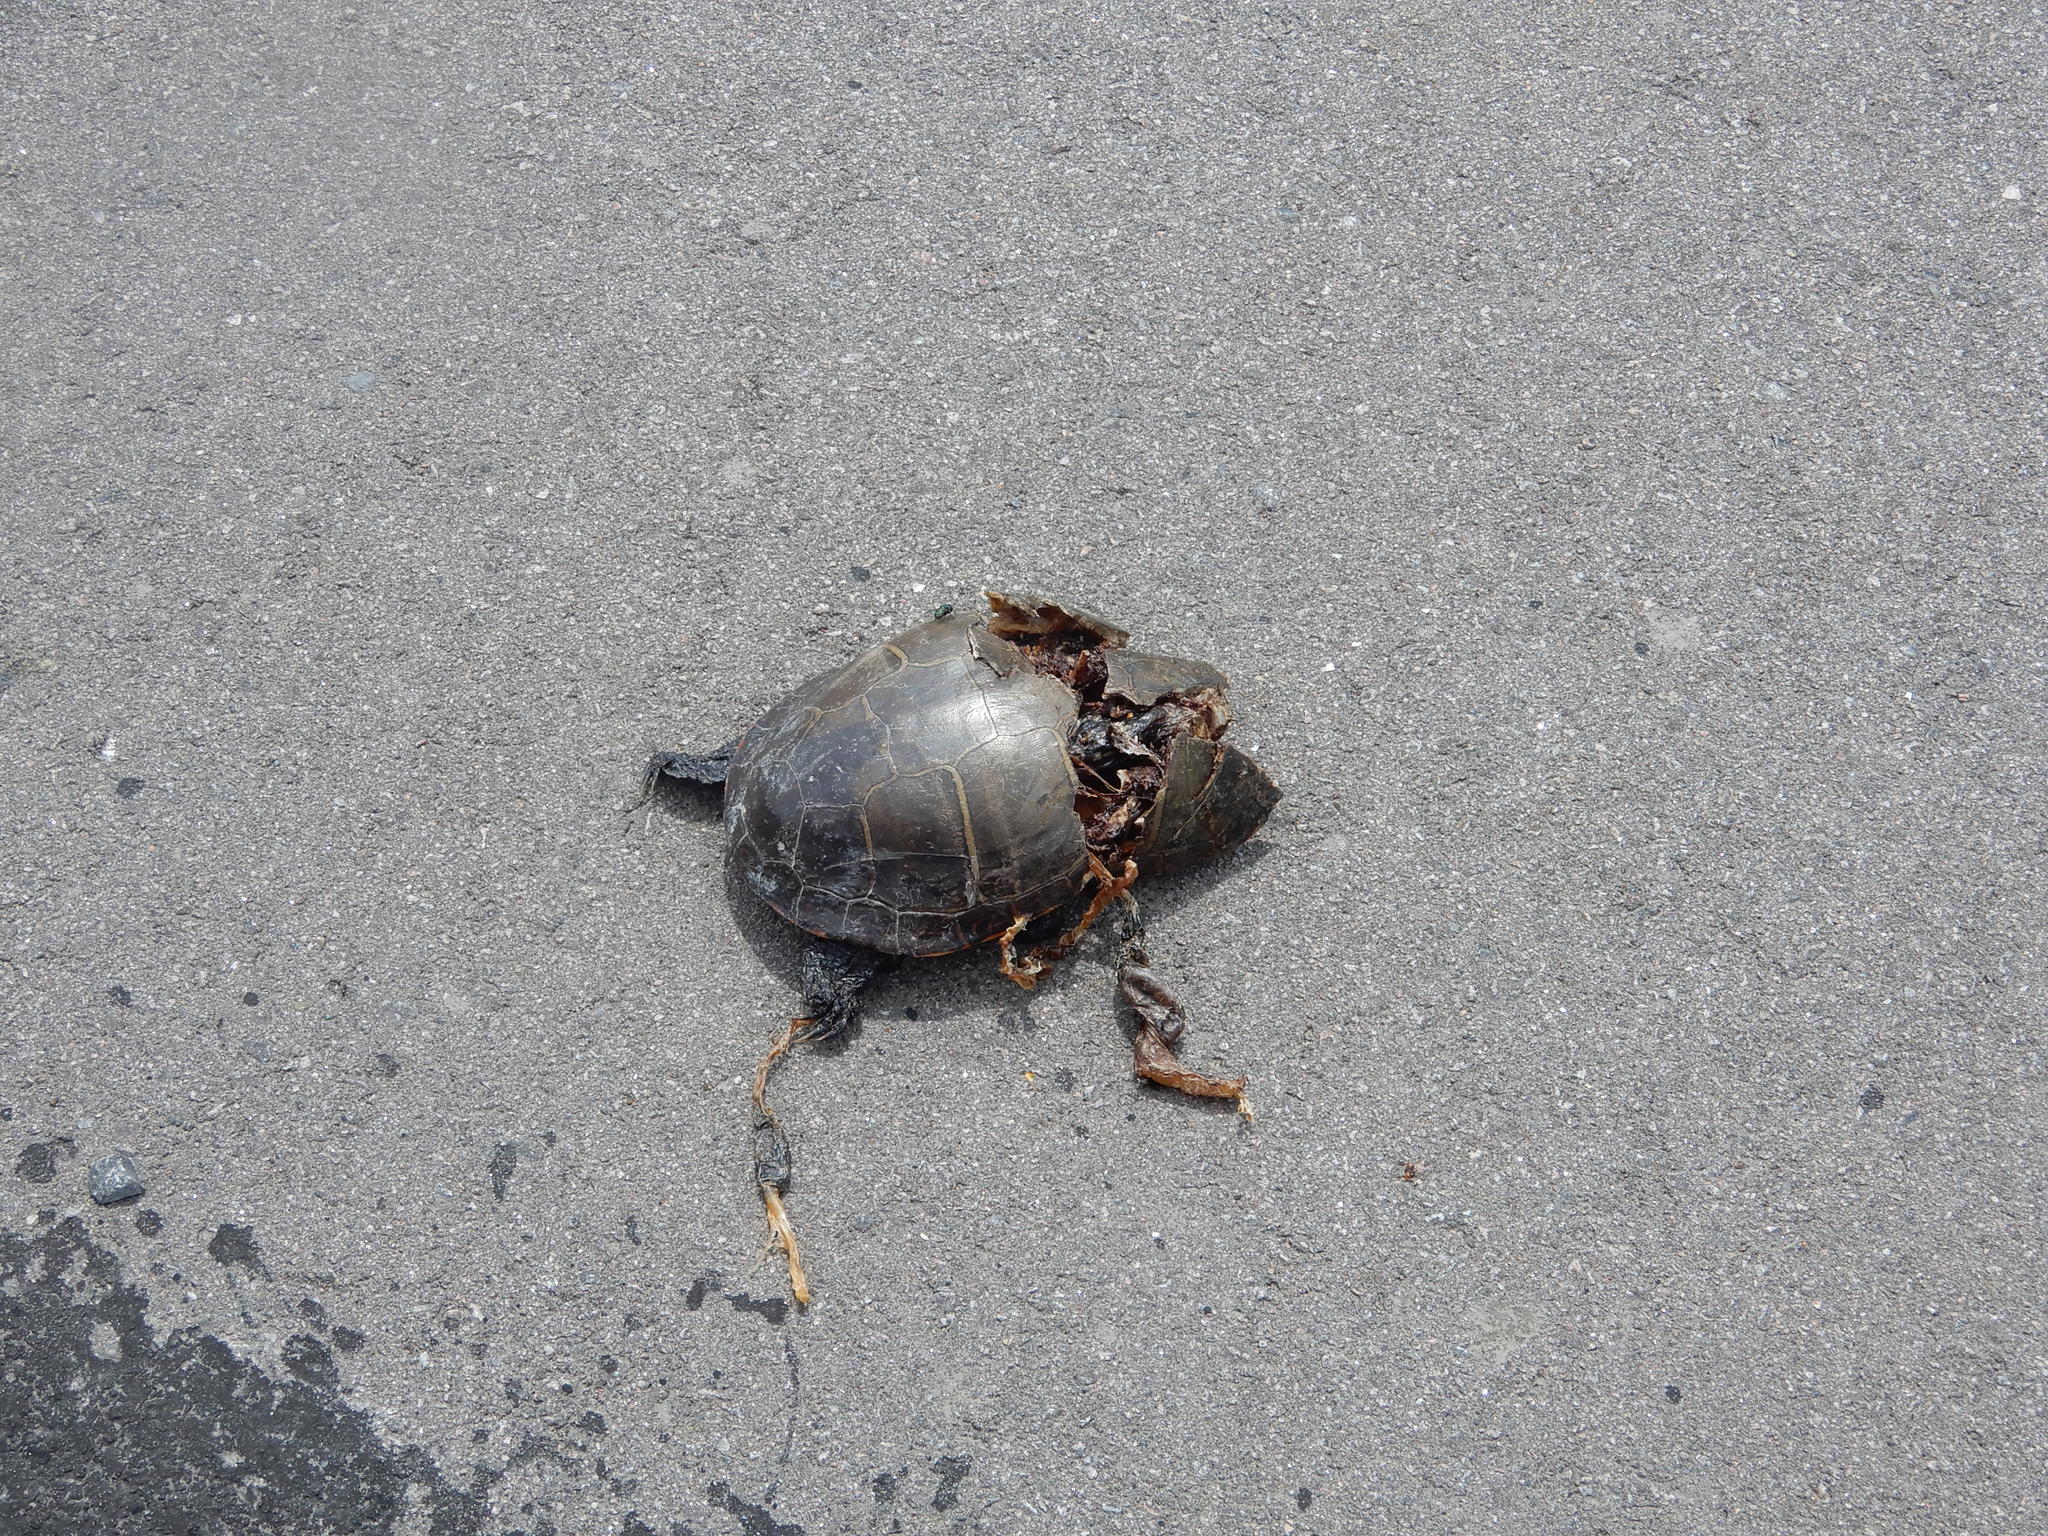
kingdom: Animalia
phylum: Chordata
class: Testudines
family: Emydidae
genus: Chrysemys
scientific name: Chrysemys picta
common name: Painted turtle
